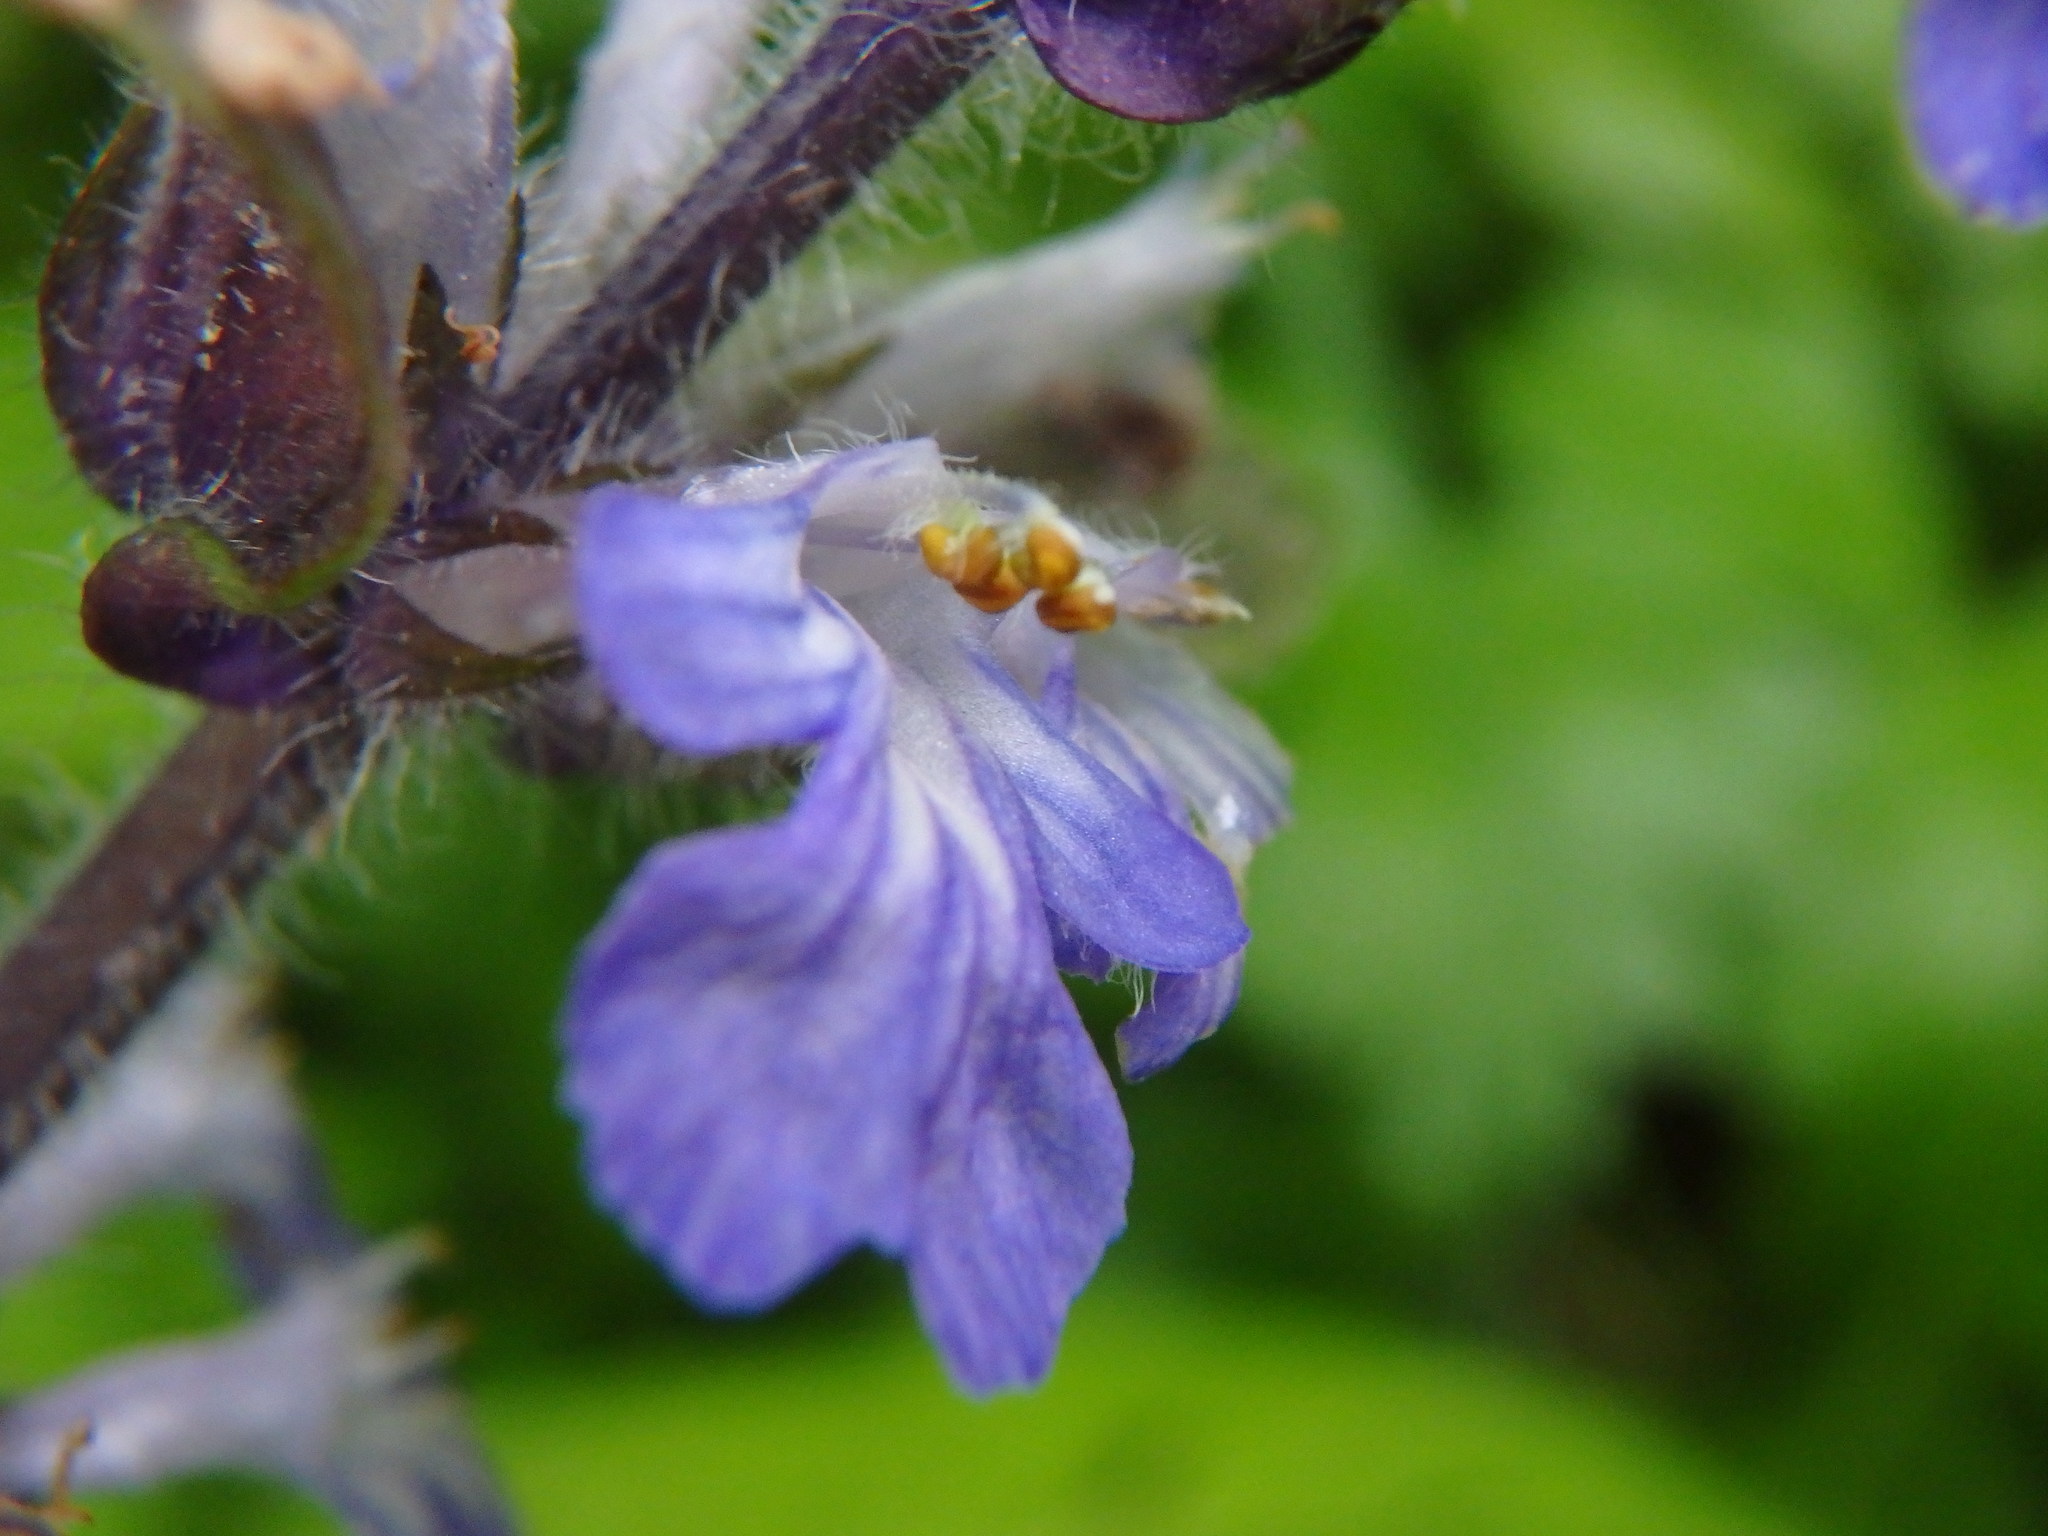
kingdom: Plantae
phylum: Tracheophyta
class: Magnoliopsida
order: Lamiales
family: Lamiaceae
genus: Ajuga
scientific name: Ajuga reptans
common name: Bugle
